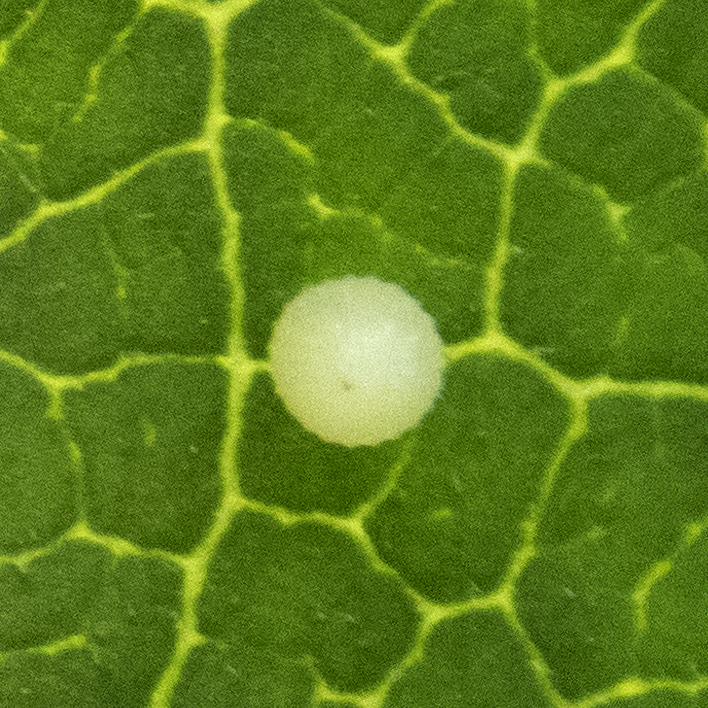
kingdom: Animalia
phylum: Arthropoda
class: Insecta
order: Lepidoptera
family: Nymphalidae
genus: Danaus
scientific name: Danaus plexippus
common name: Monarch
